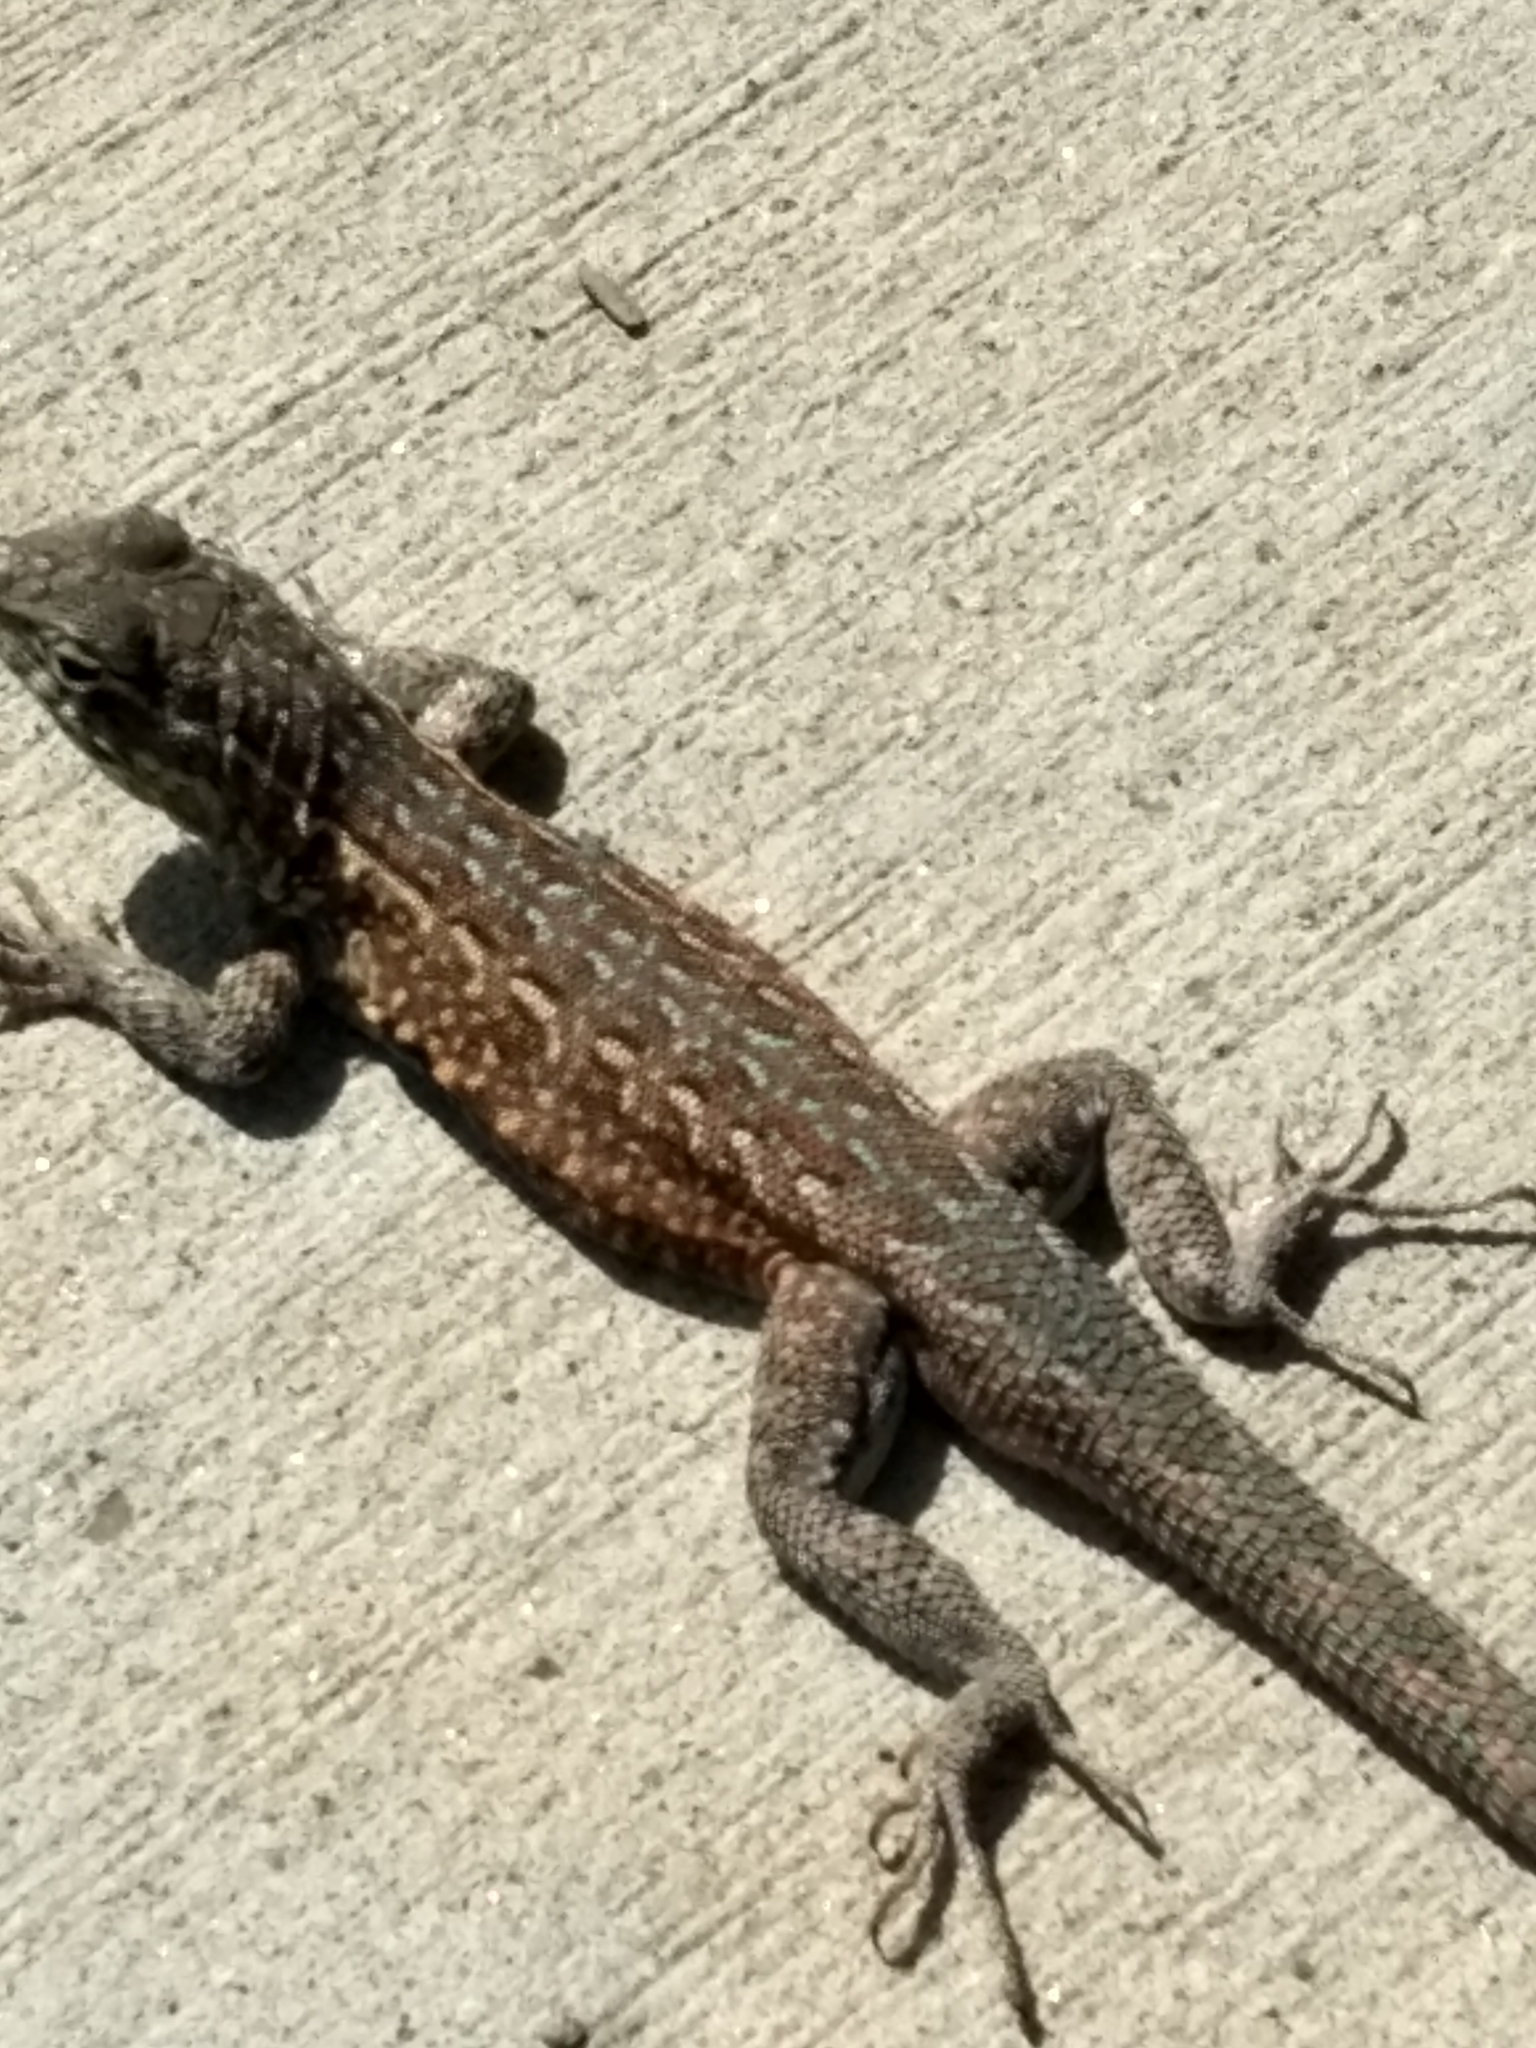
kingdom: Animalia
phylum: Chordata
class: Squamata
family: Phrynosomatidae
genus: Uta
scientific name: Uta stansburiana
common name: Side-blotched lizard
